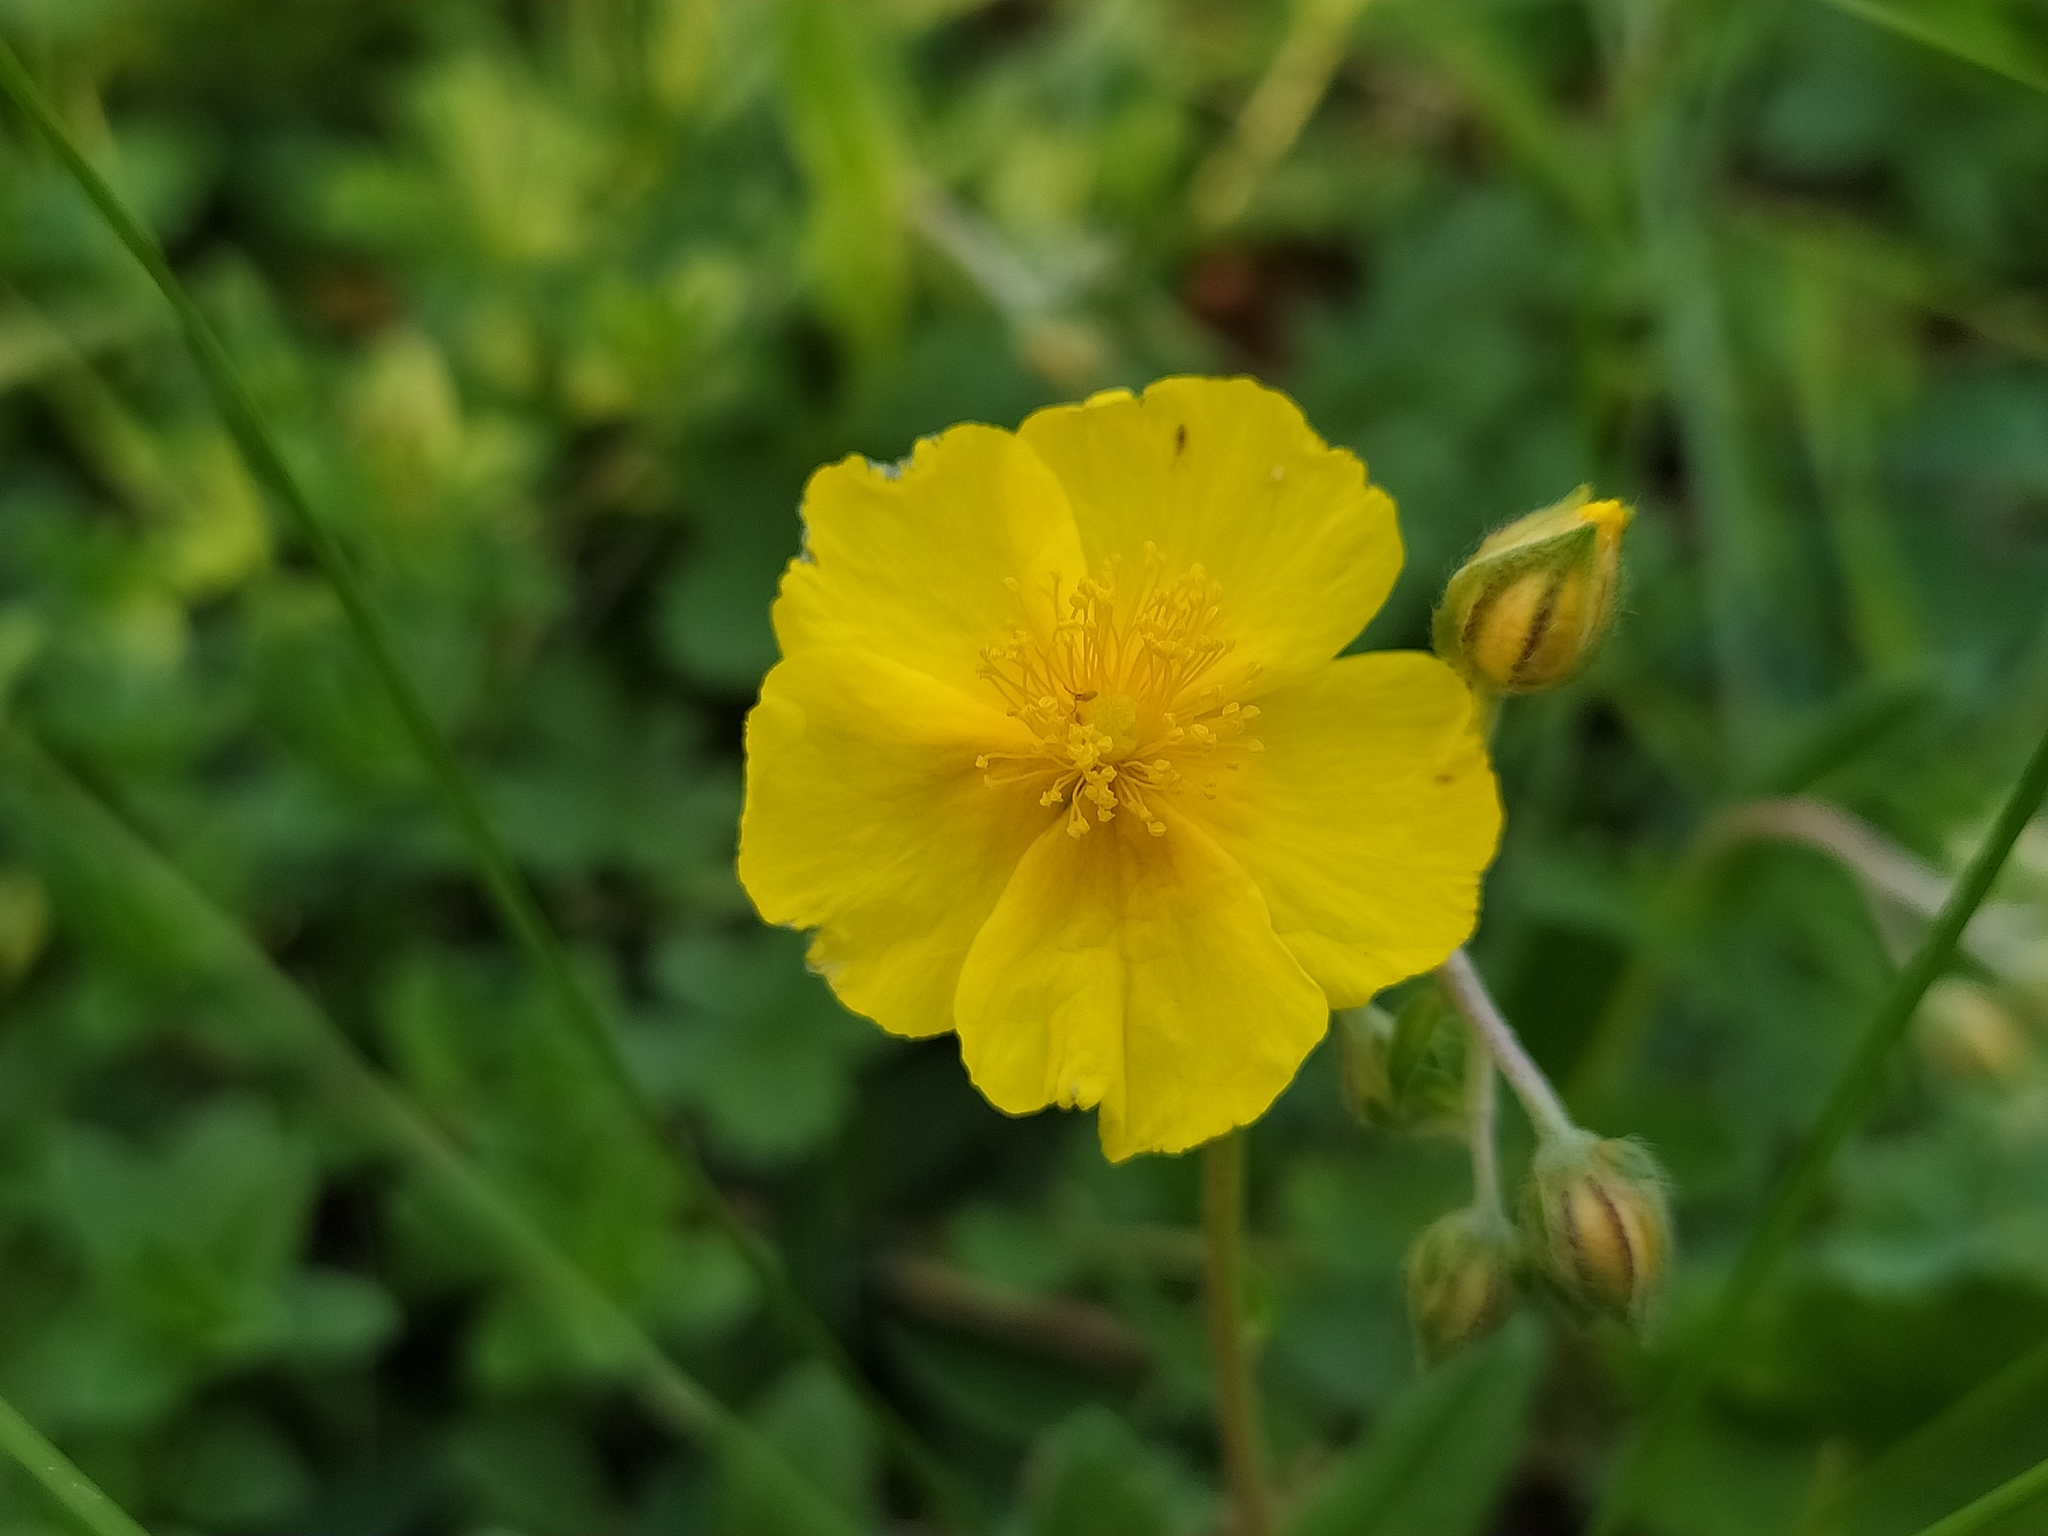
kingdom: Plantae
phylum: Tracheophyta
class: Magnoliopsida
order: Malvales
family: Cistaceae
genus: Helianthemum
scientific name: Helianthemum nummularium
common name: Common rock-rose
